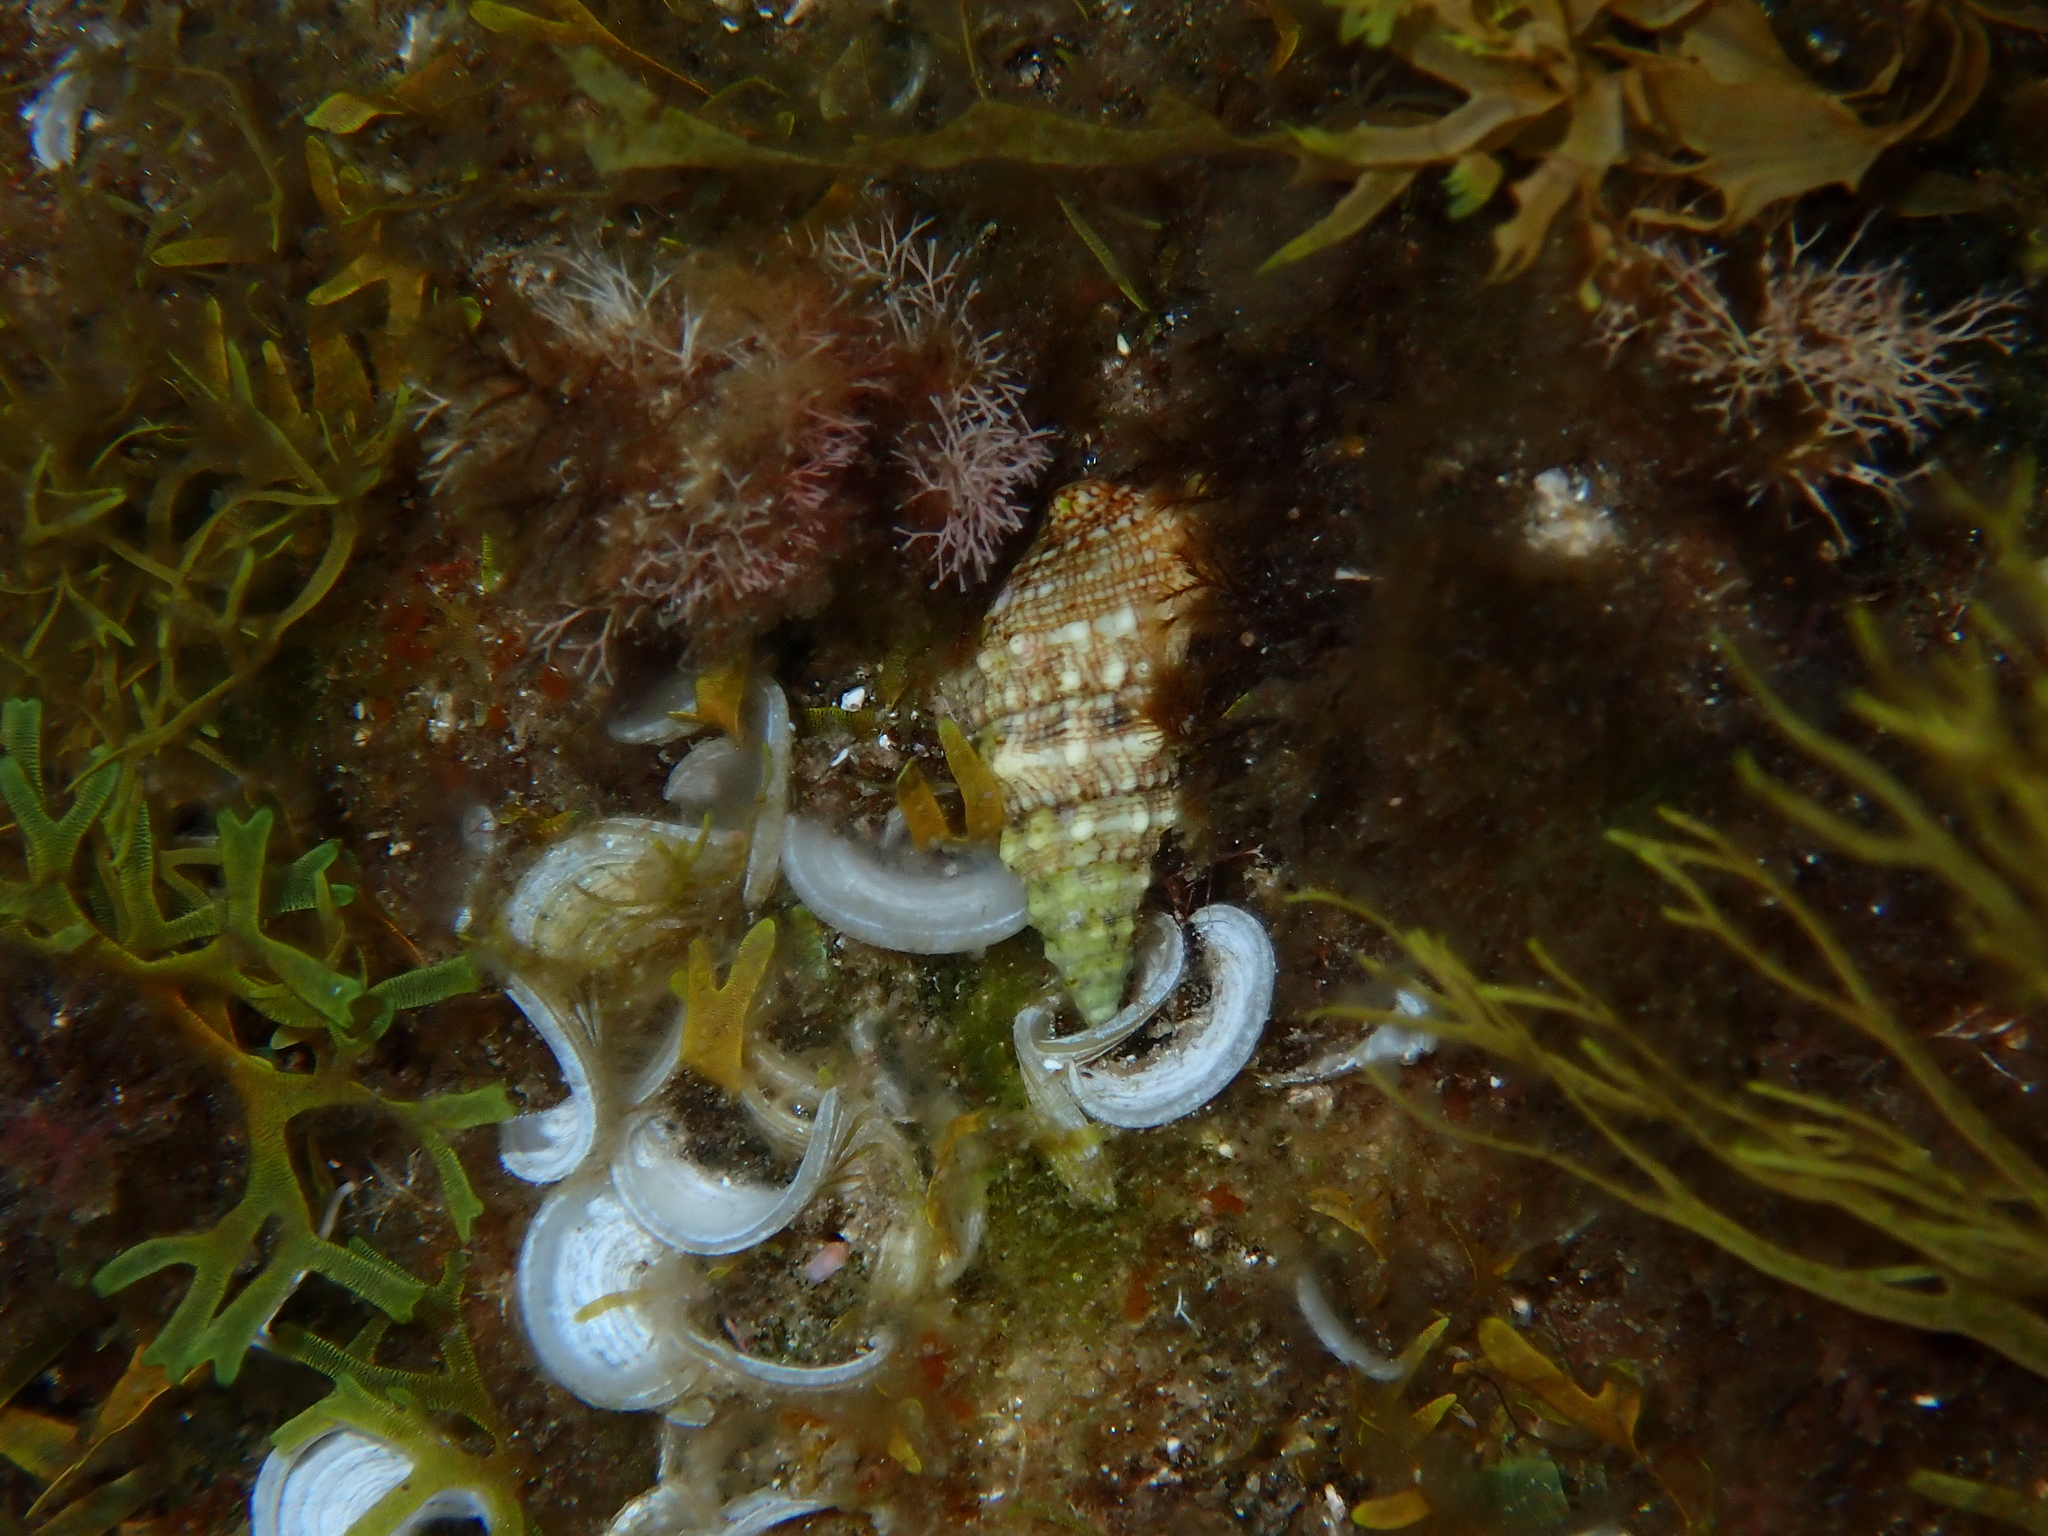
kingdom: Animalia
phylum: Mollusca
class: Gastropoda
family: Cerithiidae
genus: Cerithium
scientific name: Cerithium vulgatum
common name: European cerith
